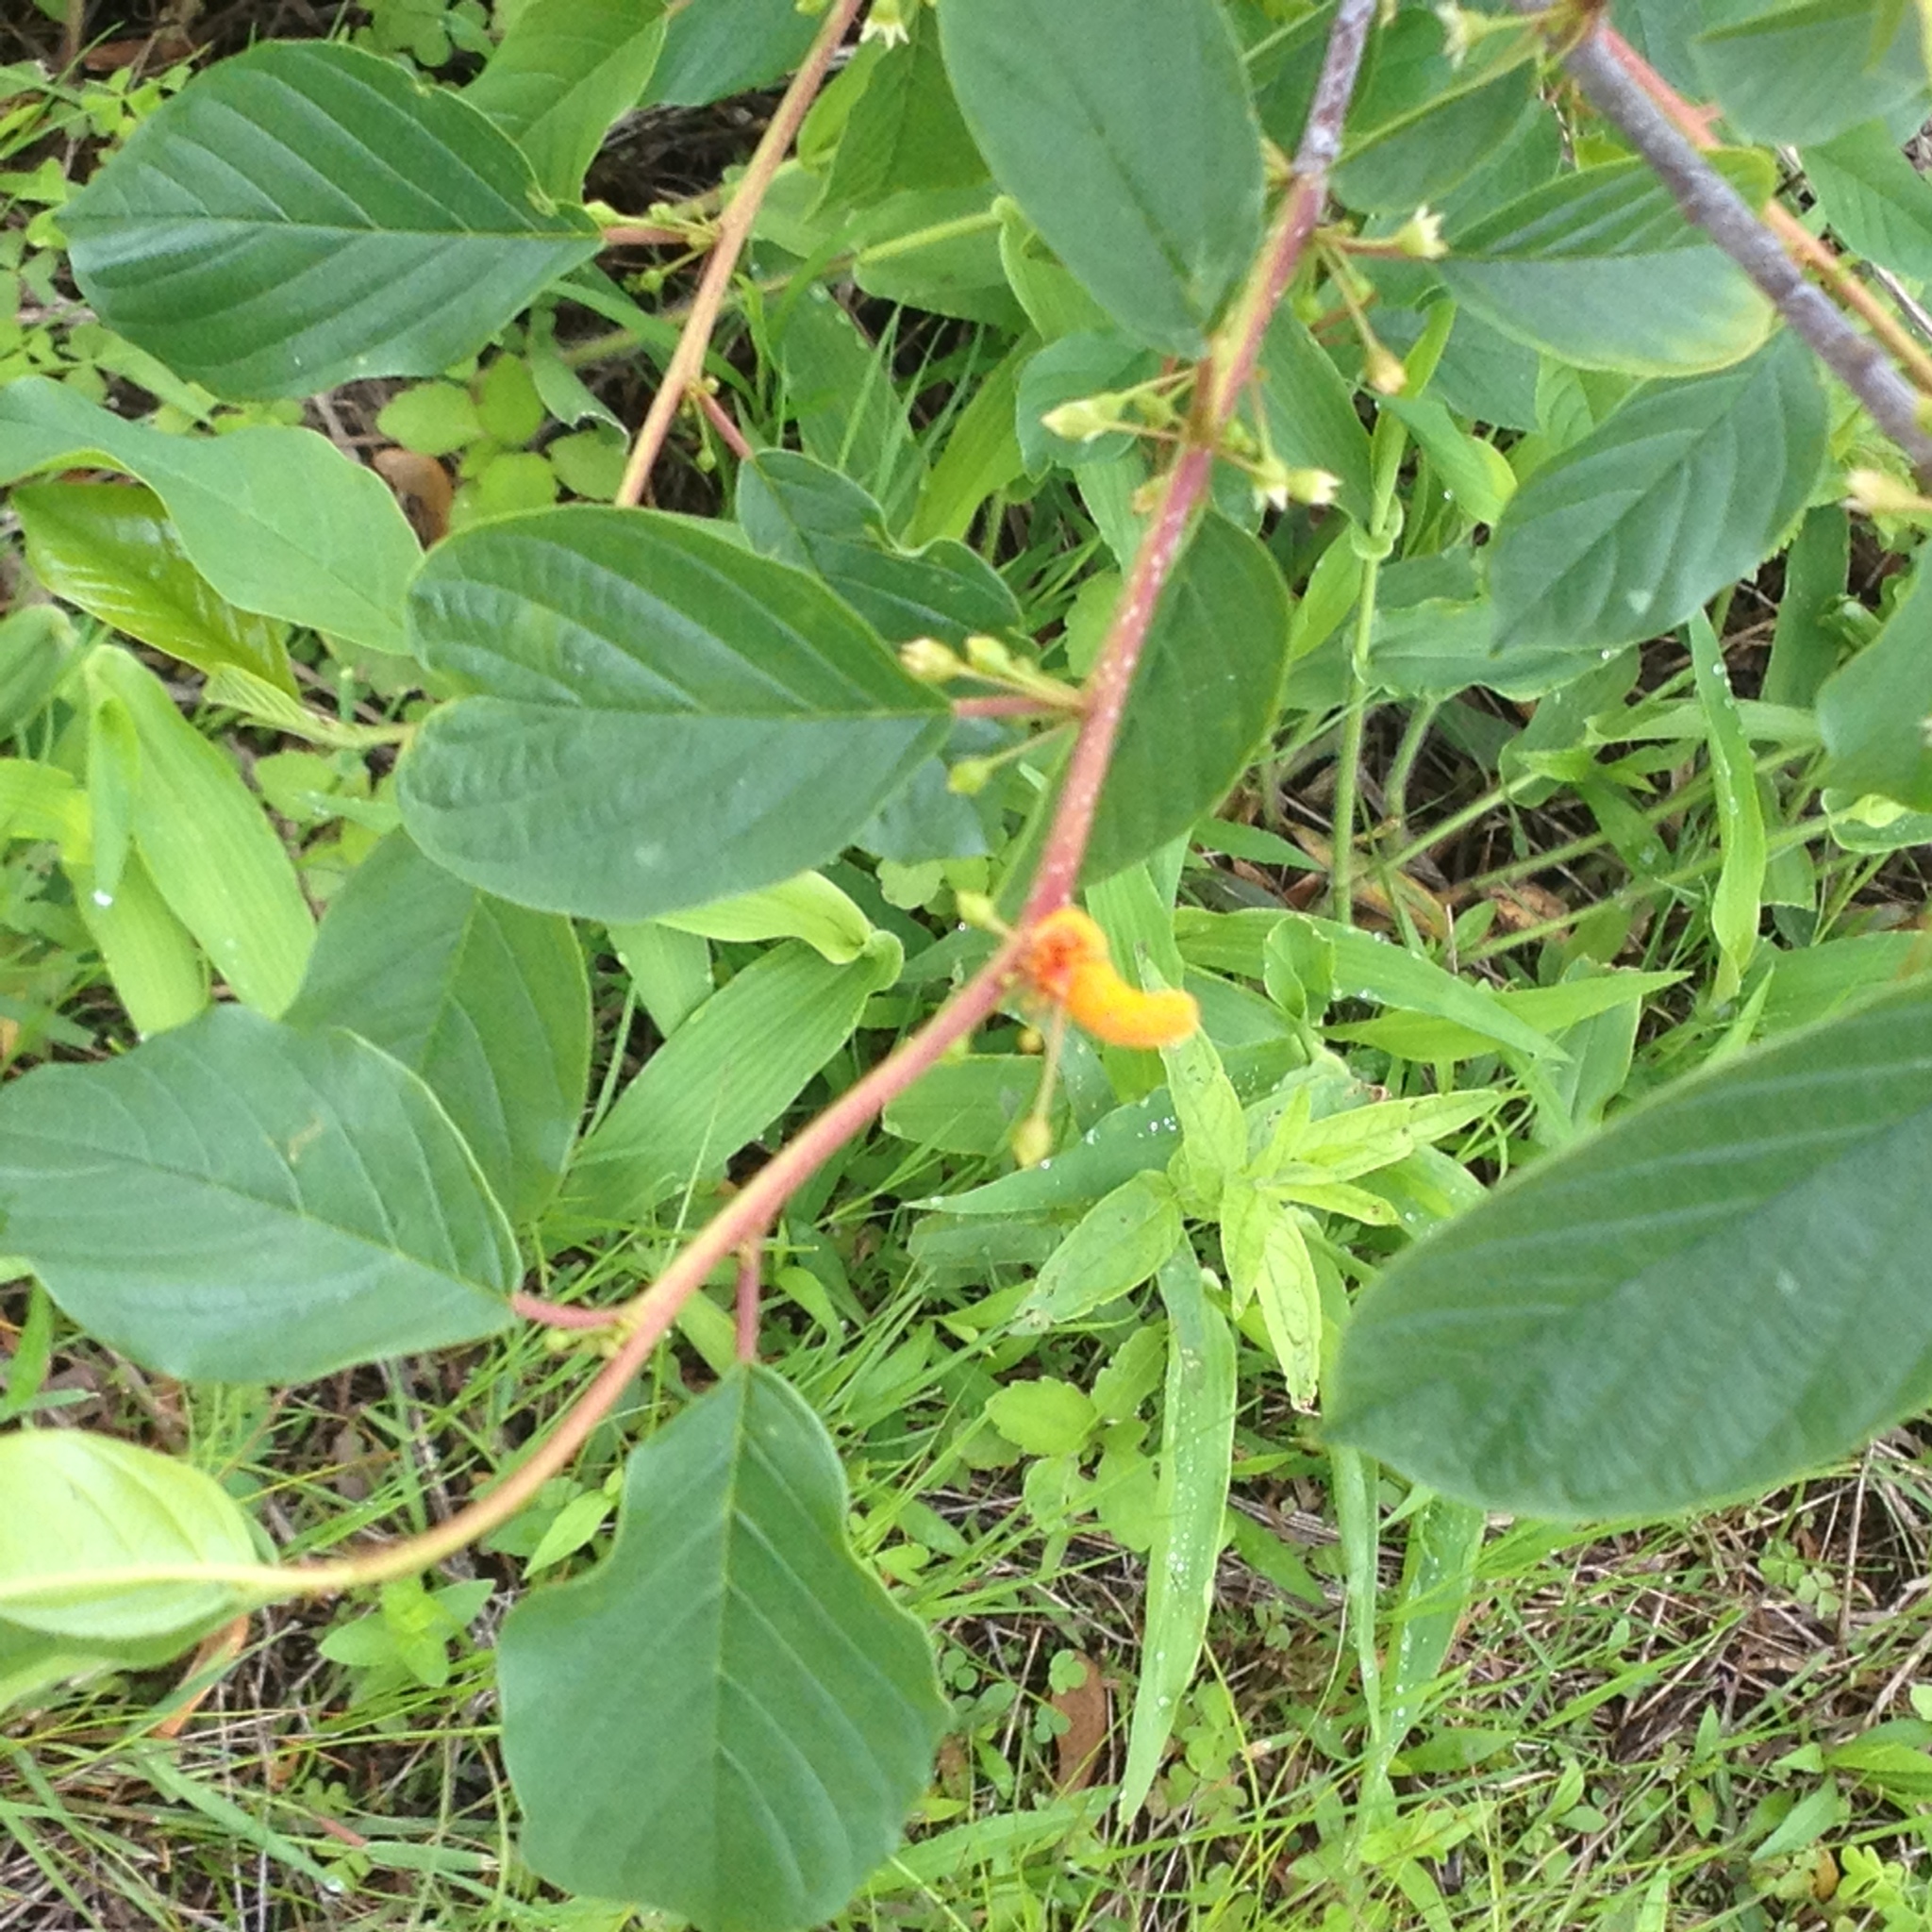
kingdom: Fungi
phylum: Basidiomycota
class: Pucciniomycetes
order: Pucciniales
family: Pucciniaceae
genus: Puccinia
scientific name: Puccinia coronata
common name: Crown rust
